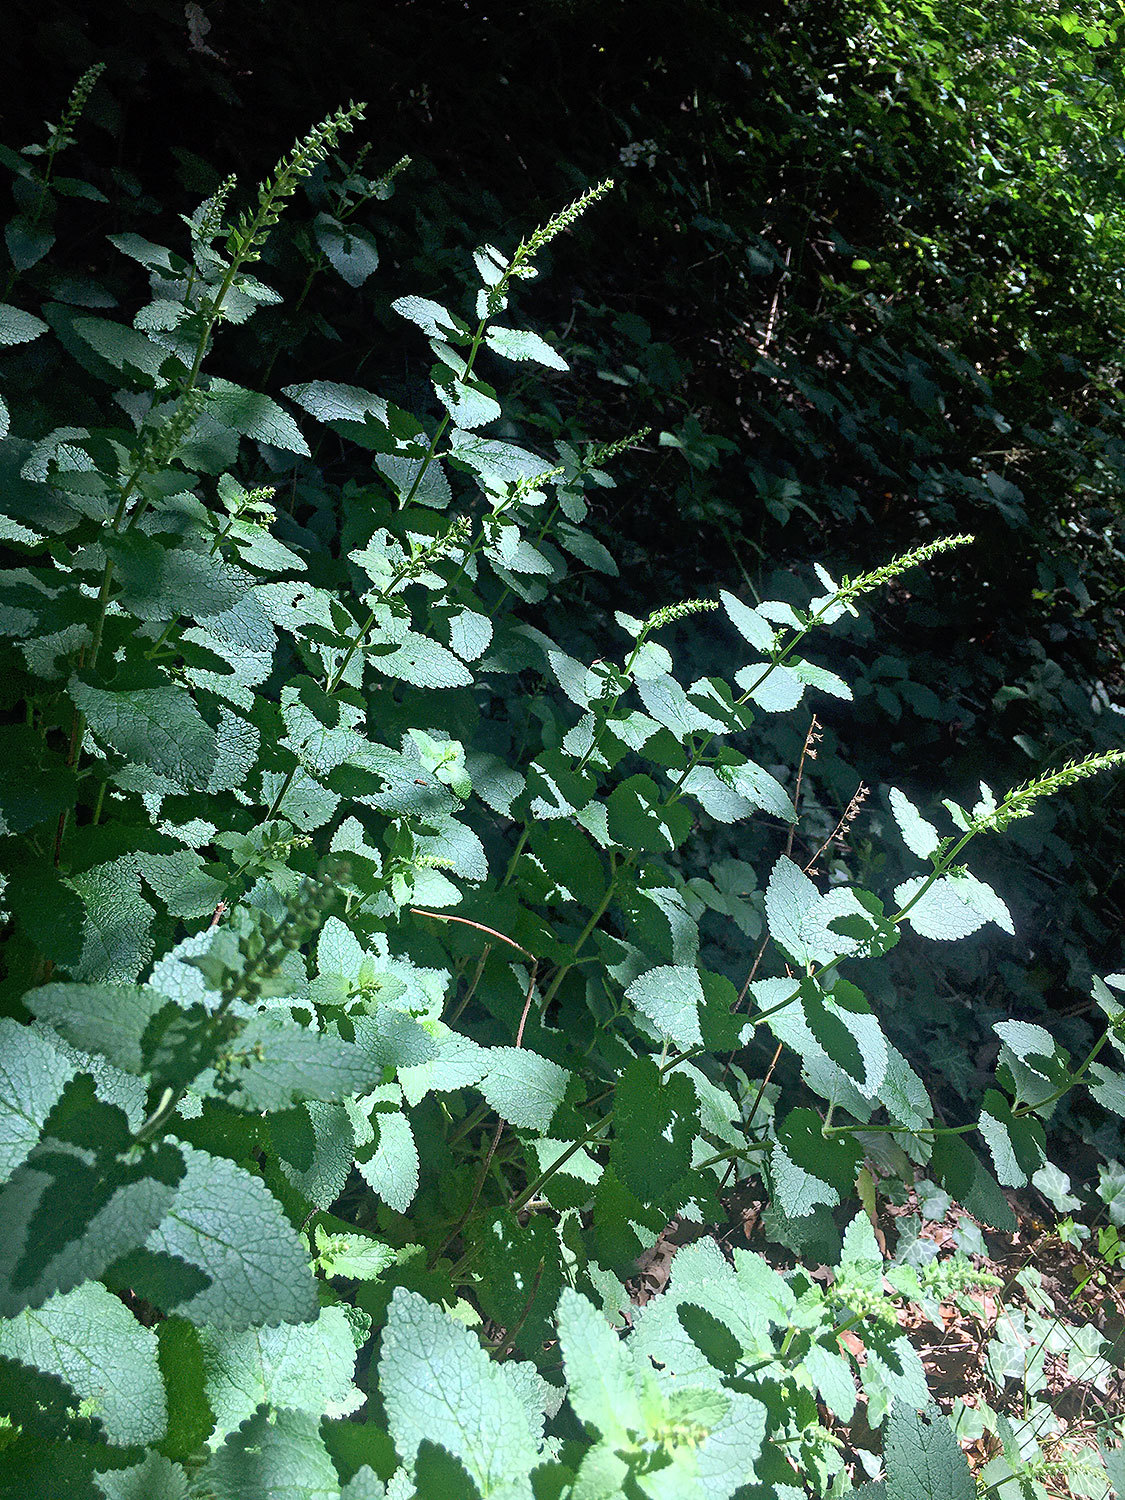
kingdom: Plantae
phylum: Tracheophyta
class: Magnoliopsida
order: Lamiales
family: Lamiaceae
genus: Teucrium
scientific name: Teucrium scorodonia
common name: Woodland germander
